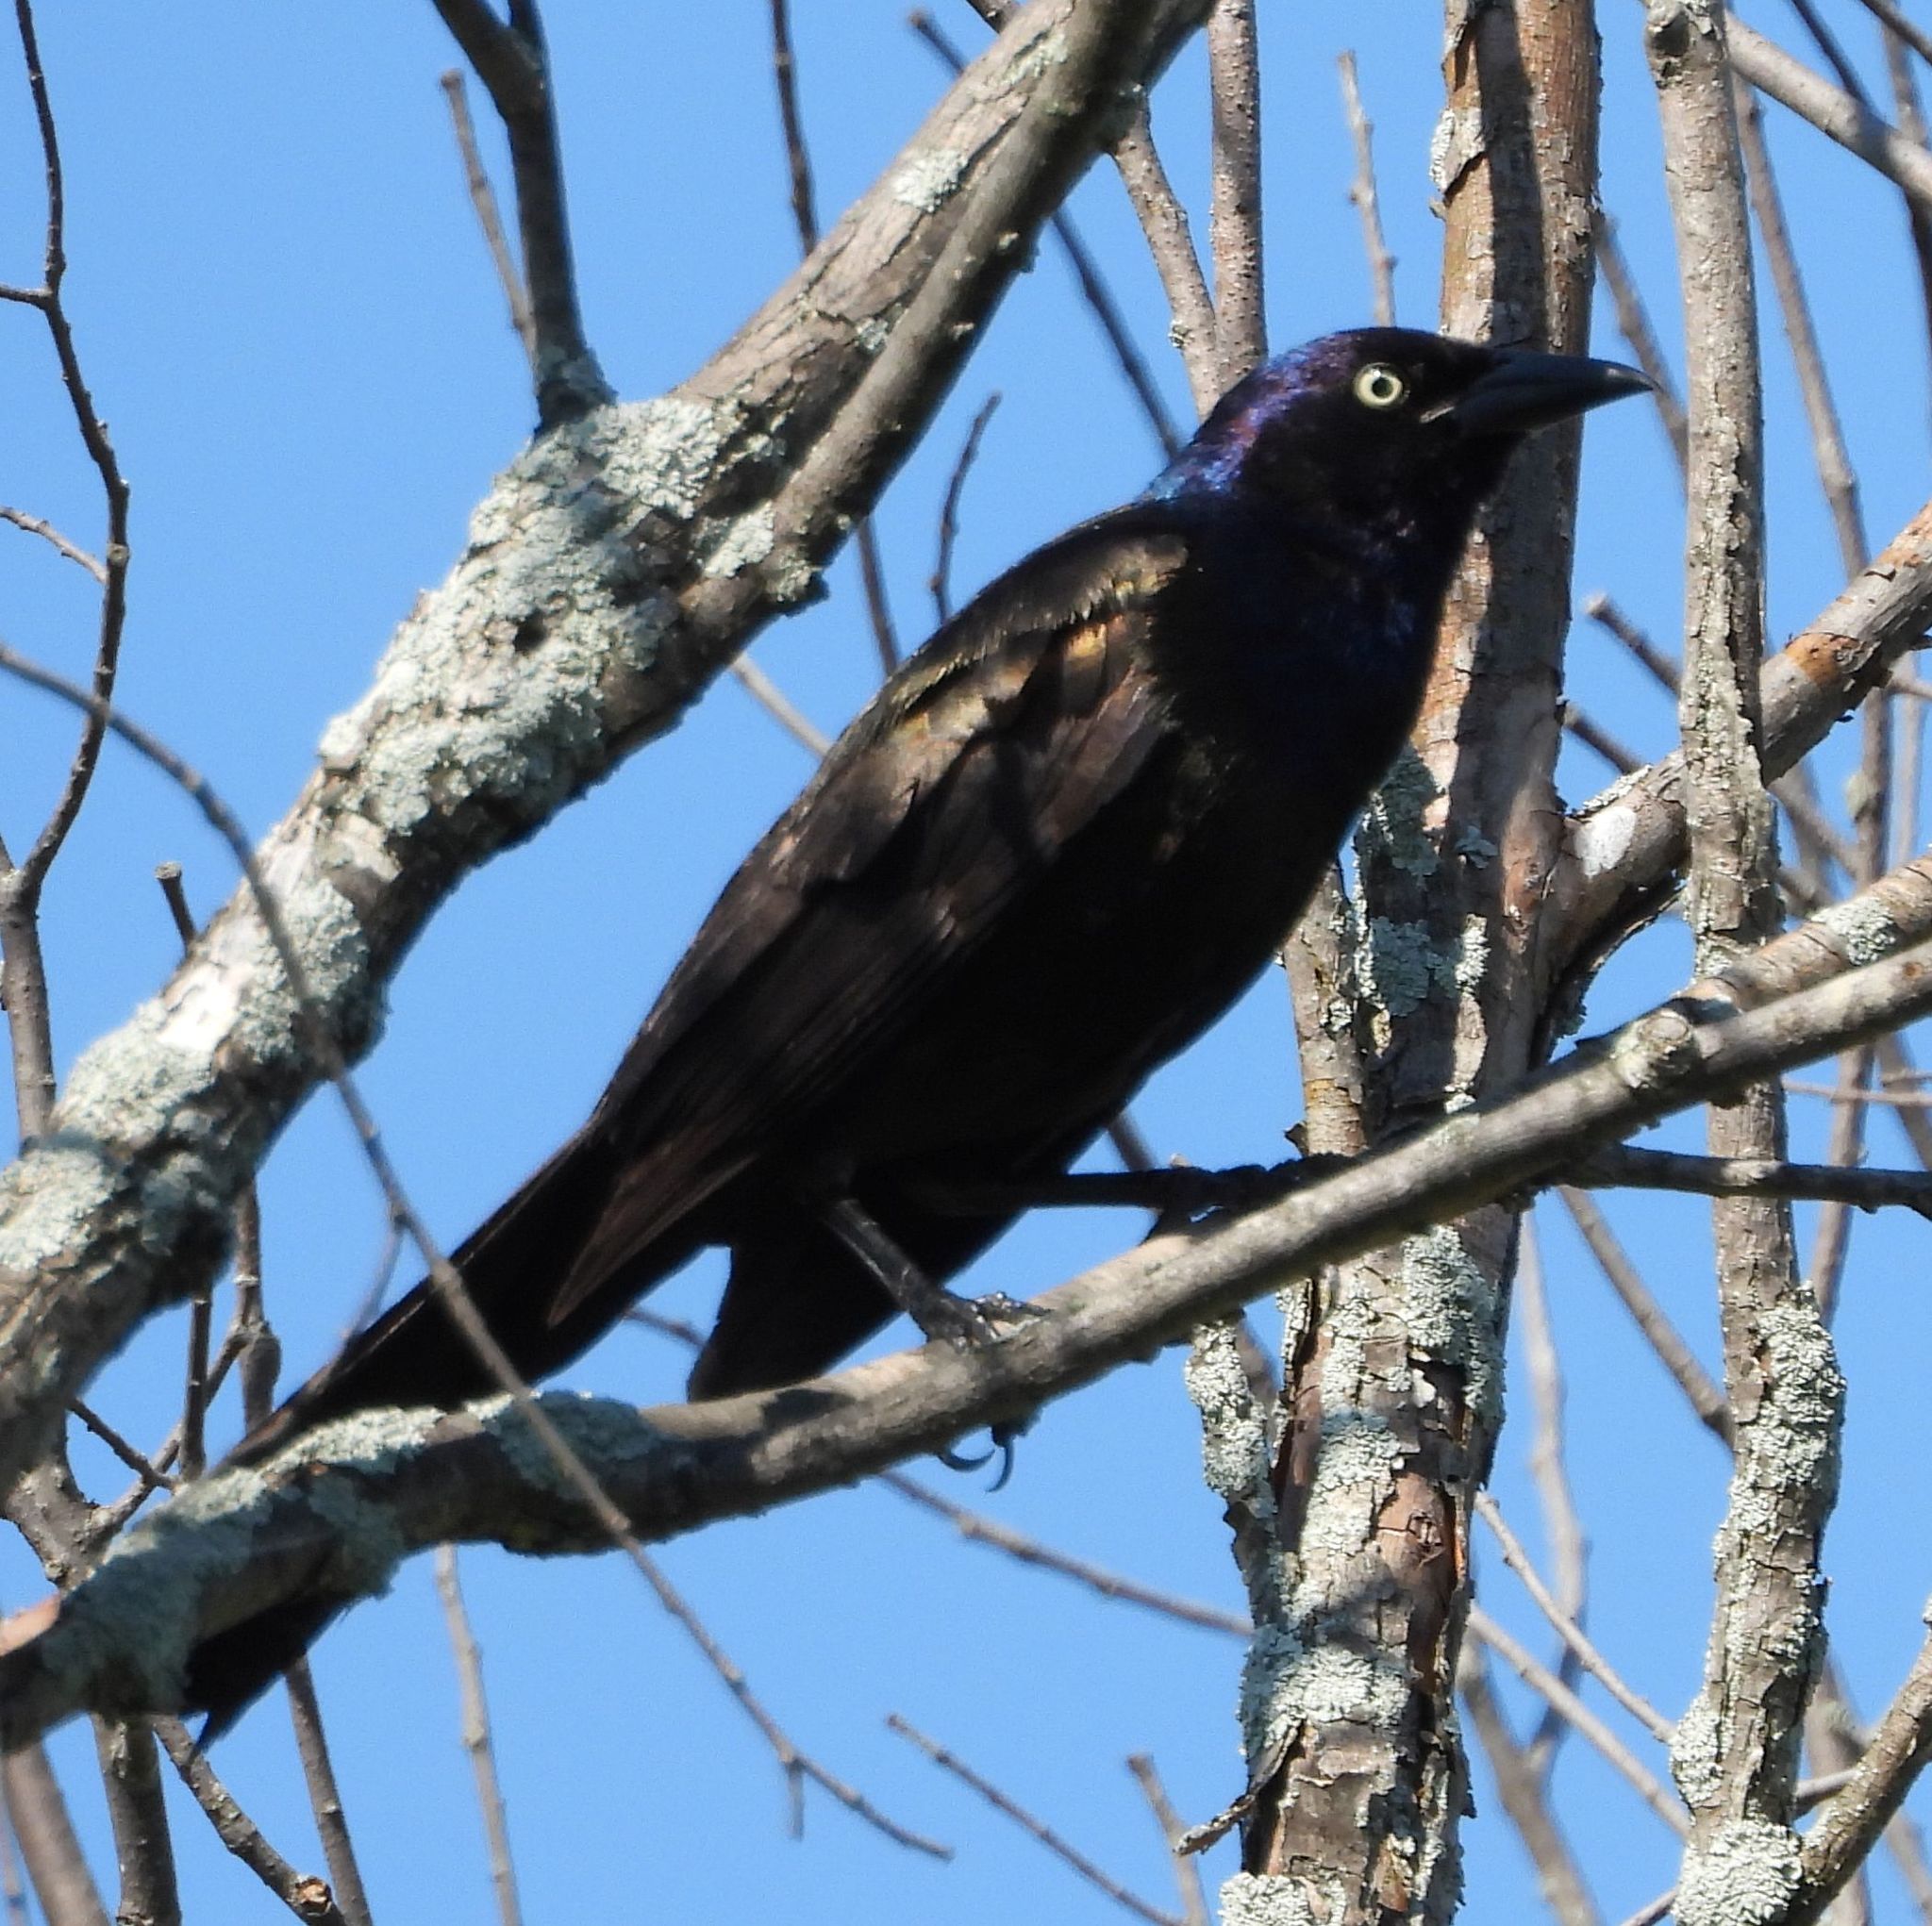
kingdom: Animalia
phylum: Chordata
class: Aves
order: Passeriformes
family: Icteridae
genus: Quiscalus
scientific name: Quiscalus quiscula
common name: Common grackle
